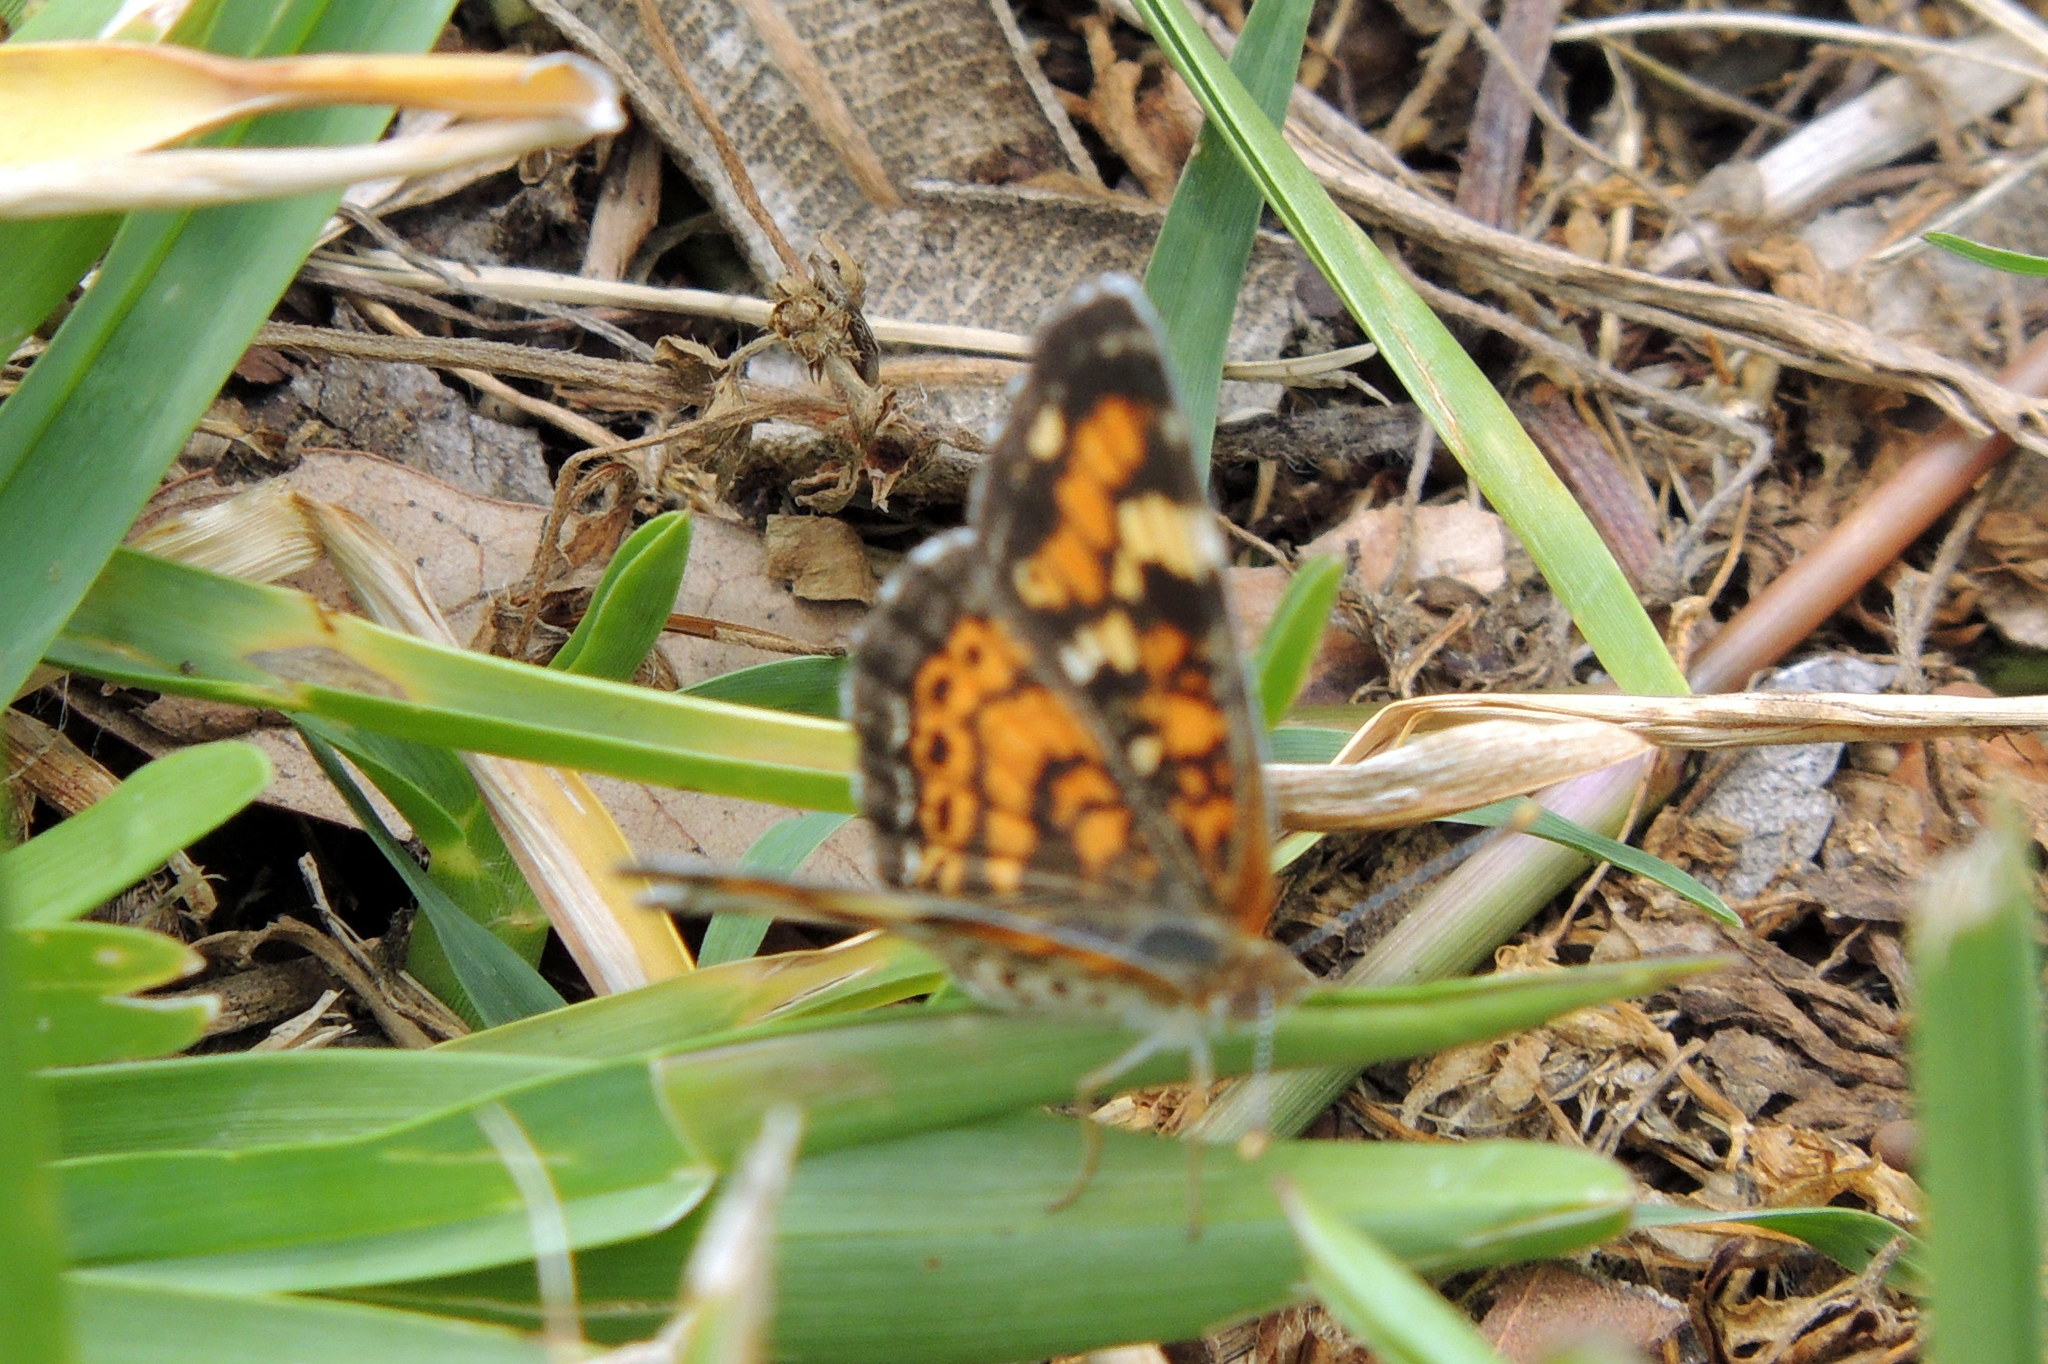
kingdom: Animalia
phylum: Arthropoda
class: Insecta
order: Lepidoptera
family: Nymphalidae
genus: Phyciodes
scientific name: Phyciodes phaon
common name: Phaon crescent
